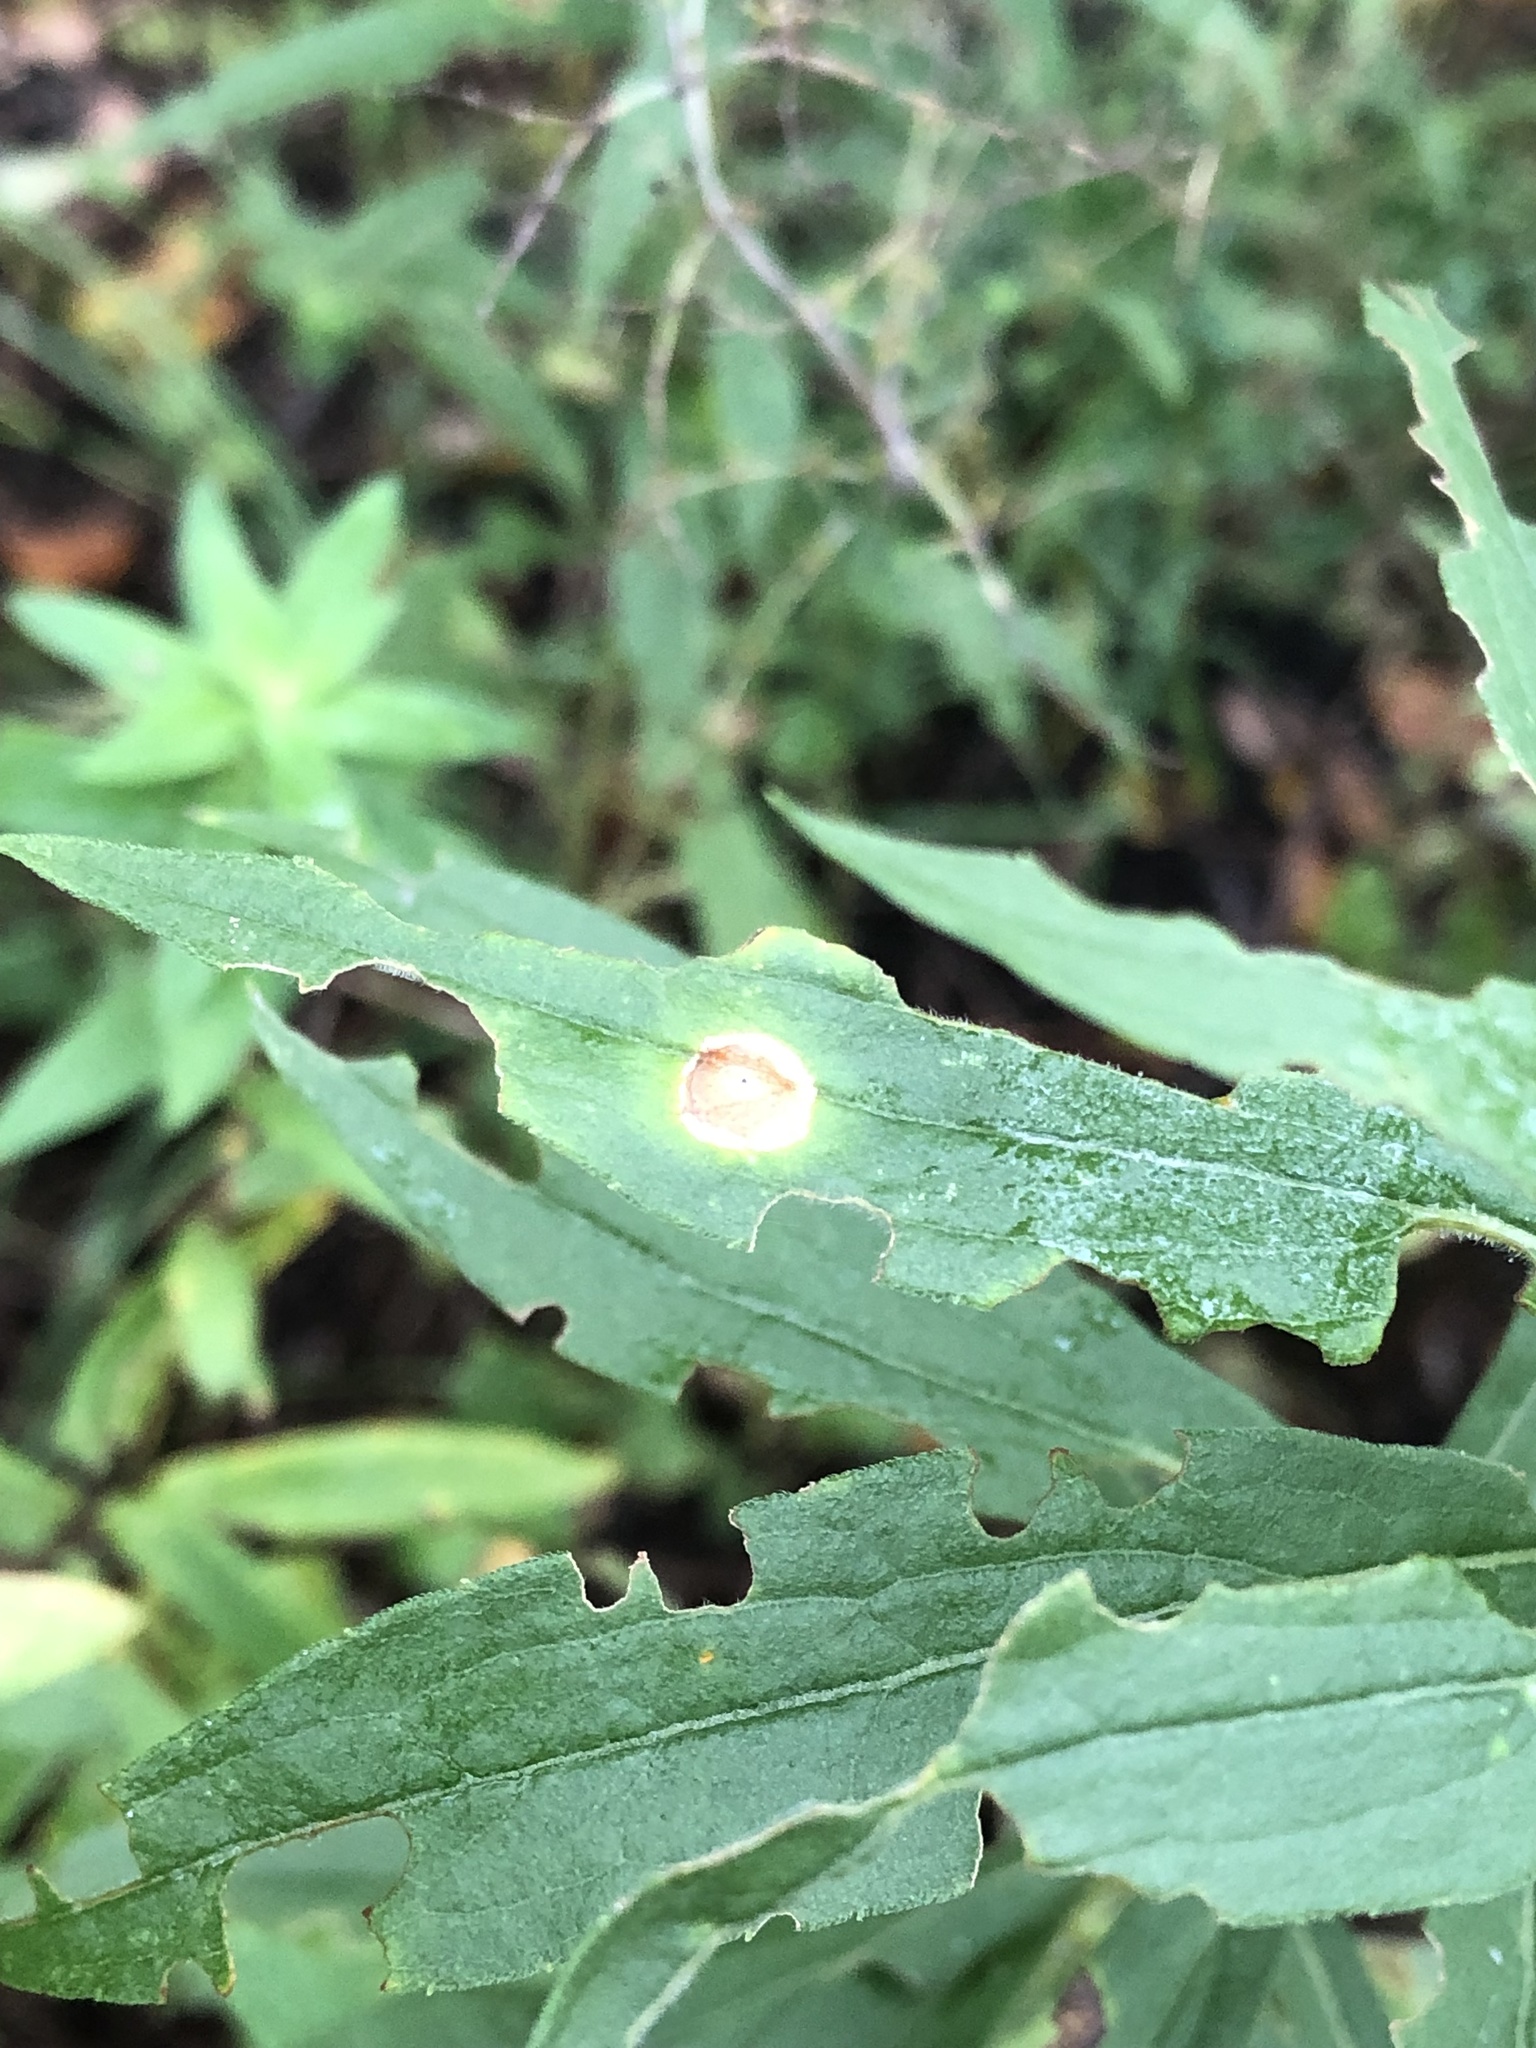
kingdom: Animalia
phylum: Arthropoda
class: Insecta
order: Diptera
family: Cecidomyiidae
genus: Asteromyia
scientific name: Asteromyia carbonifera
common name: Carbonifera goldenrod gall midge
